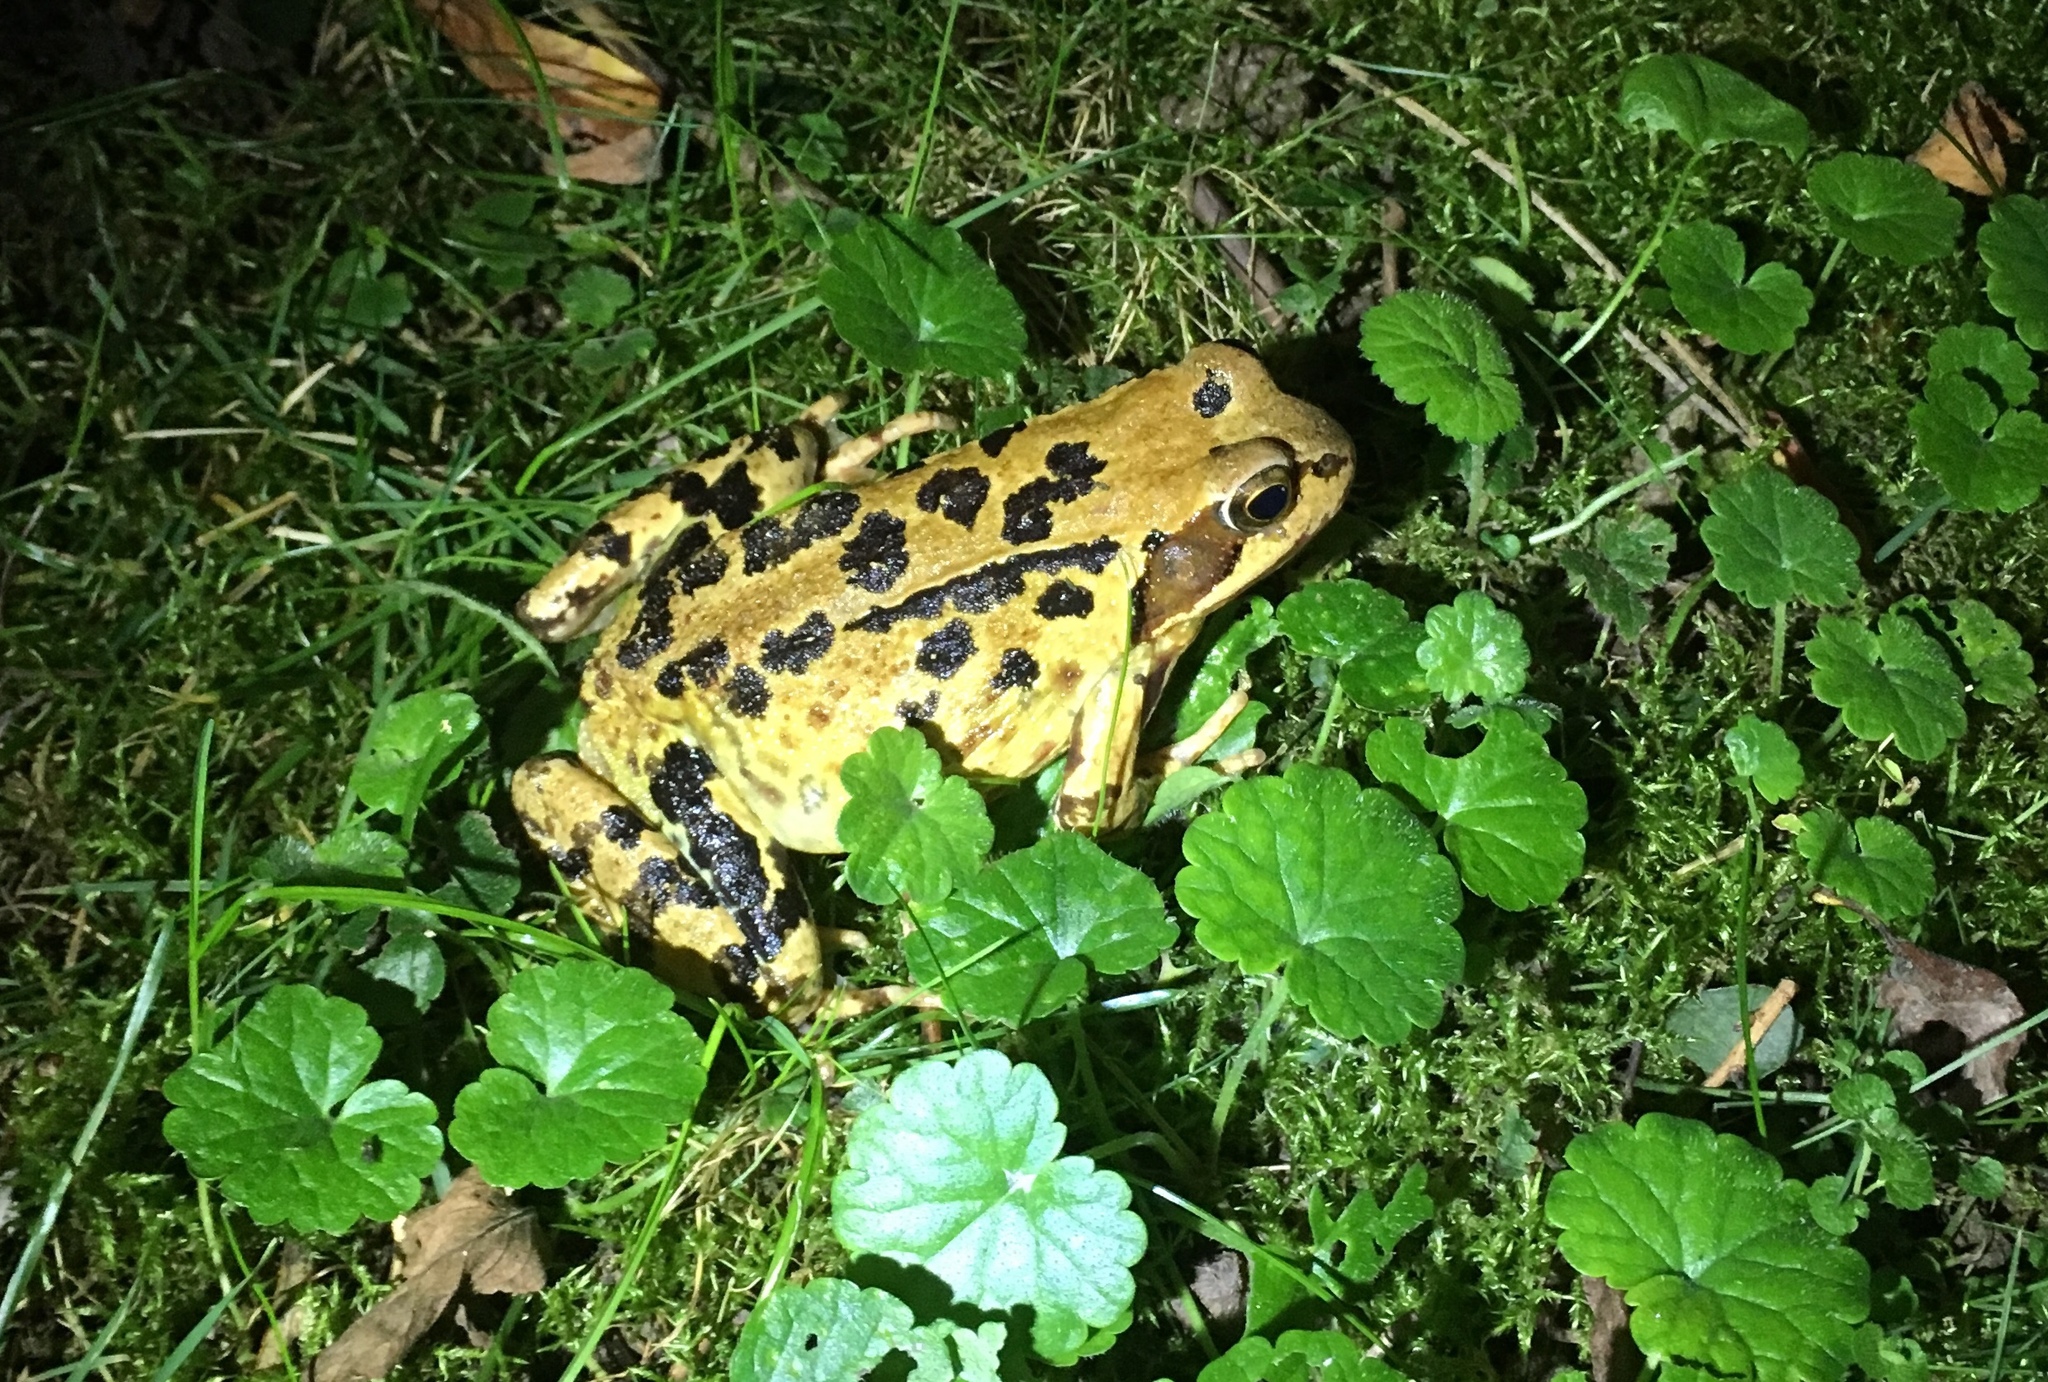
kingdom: Animalia
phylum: Chordata
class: Amphibia
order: Anura
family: Ranidae
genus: Rana
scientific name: Rana temporaria
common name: Common frog
